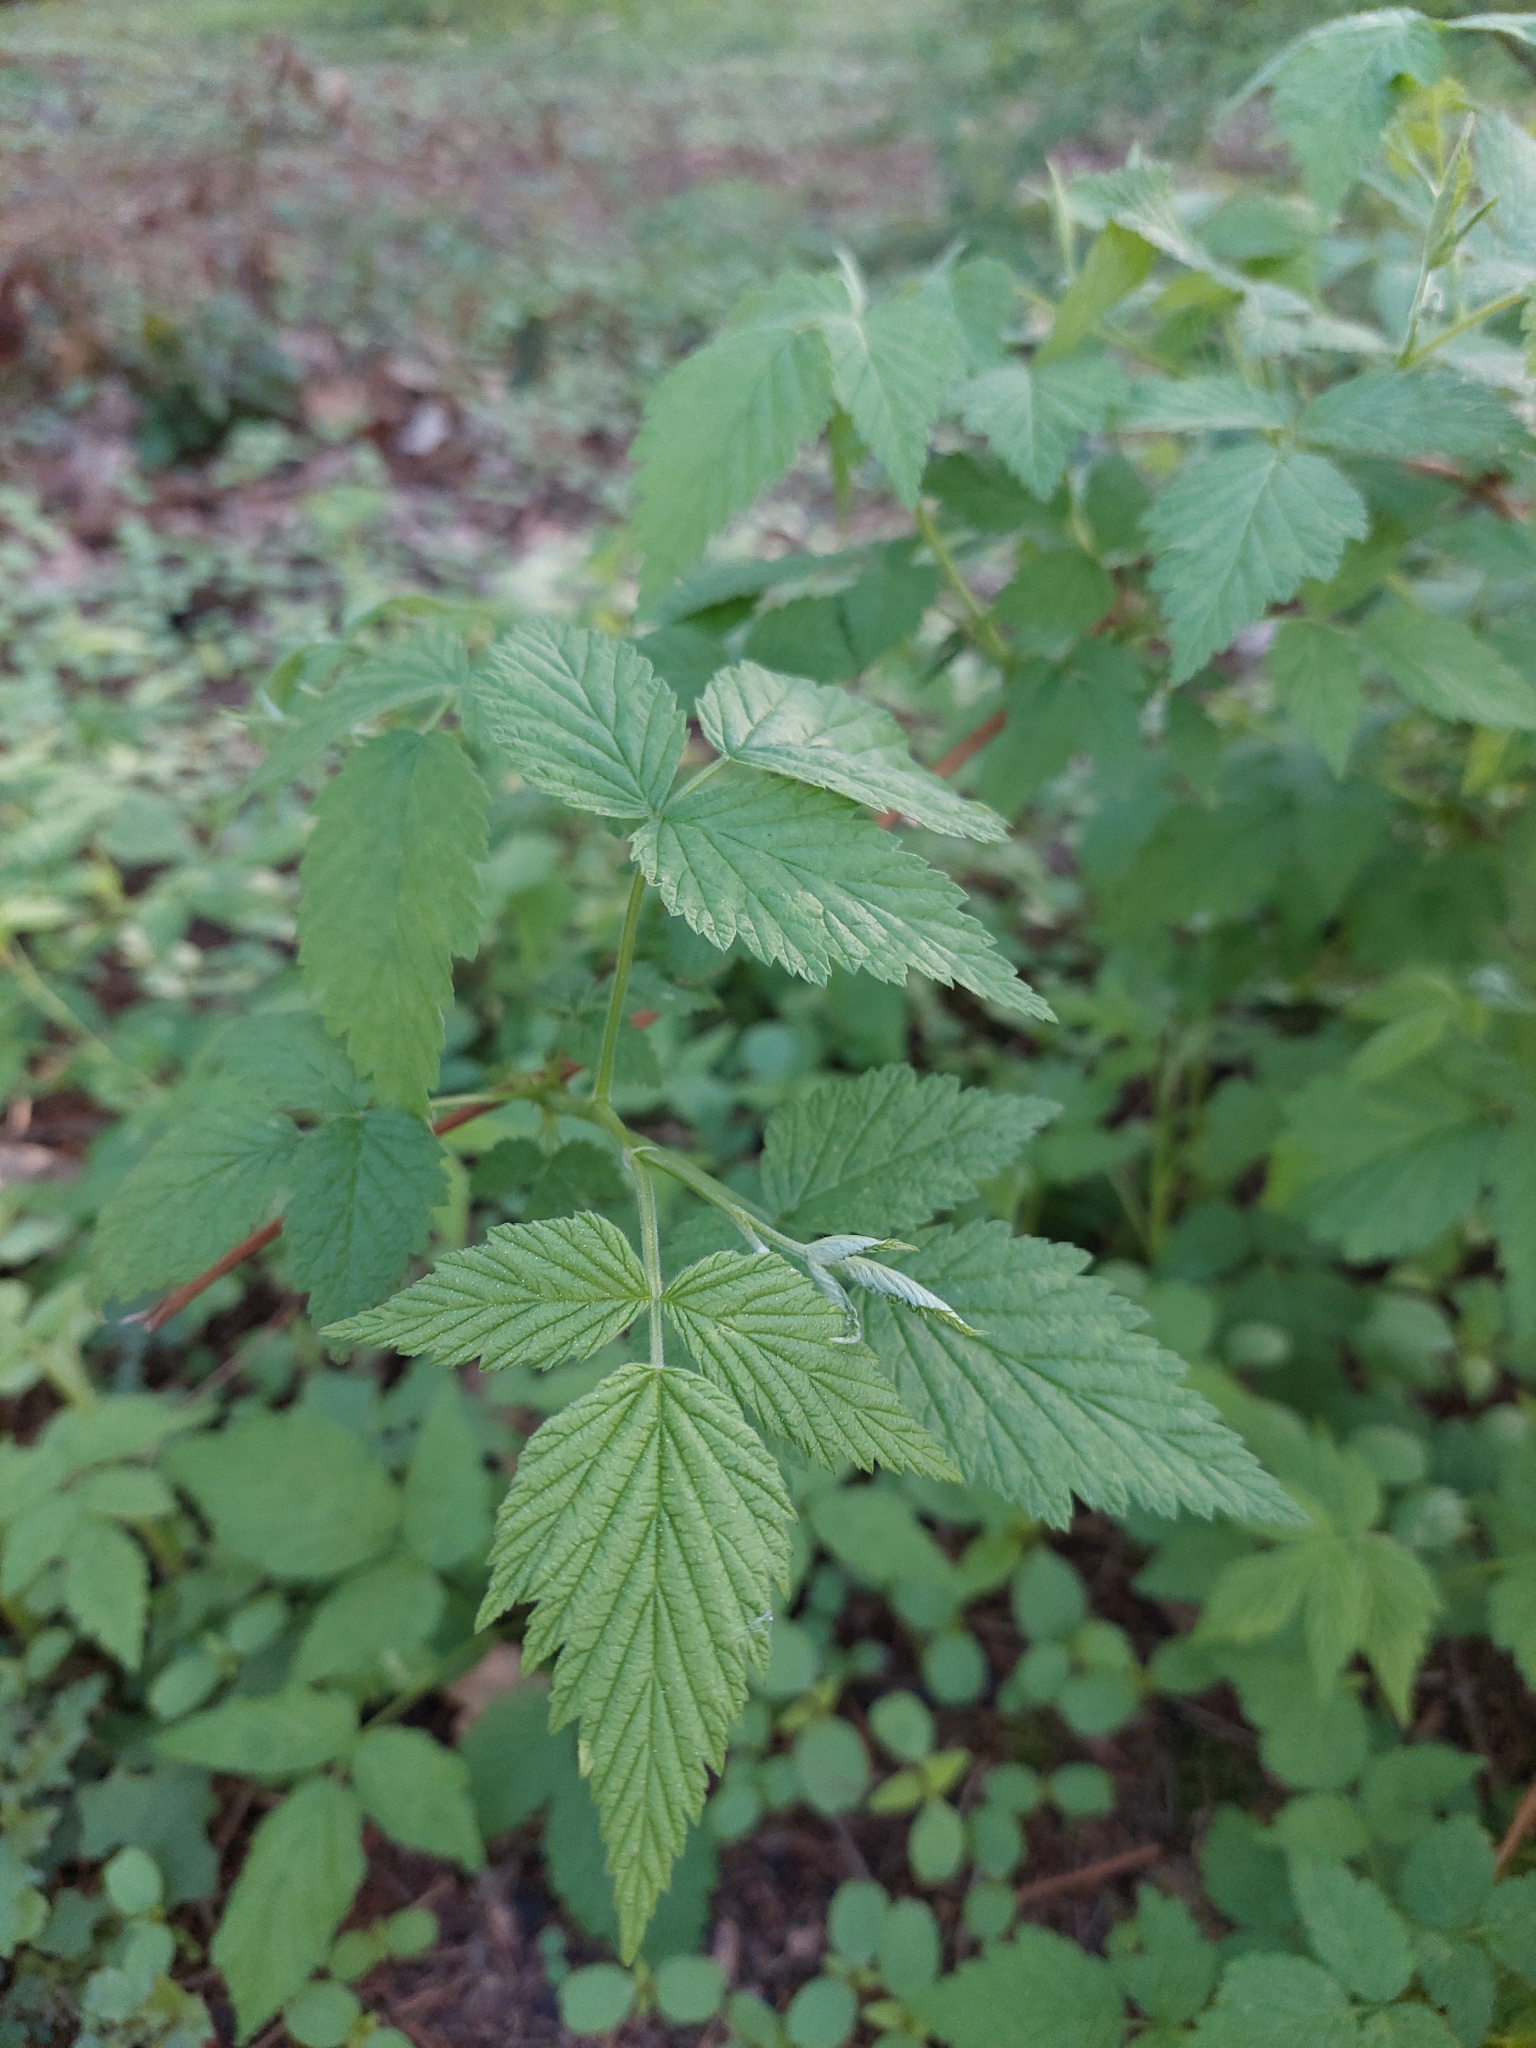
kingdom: Plantae
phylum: Tracheophyta
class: Magnoliopsida
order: Rosales
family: Rosaceae
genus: Rubus
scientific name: Rubus idaeus
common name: Raspberry
